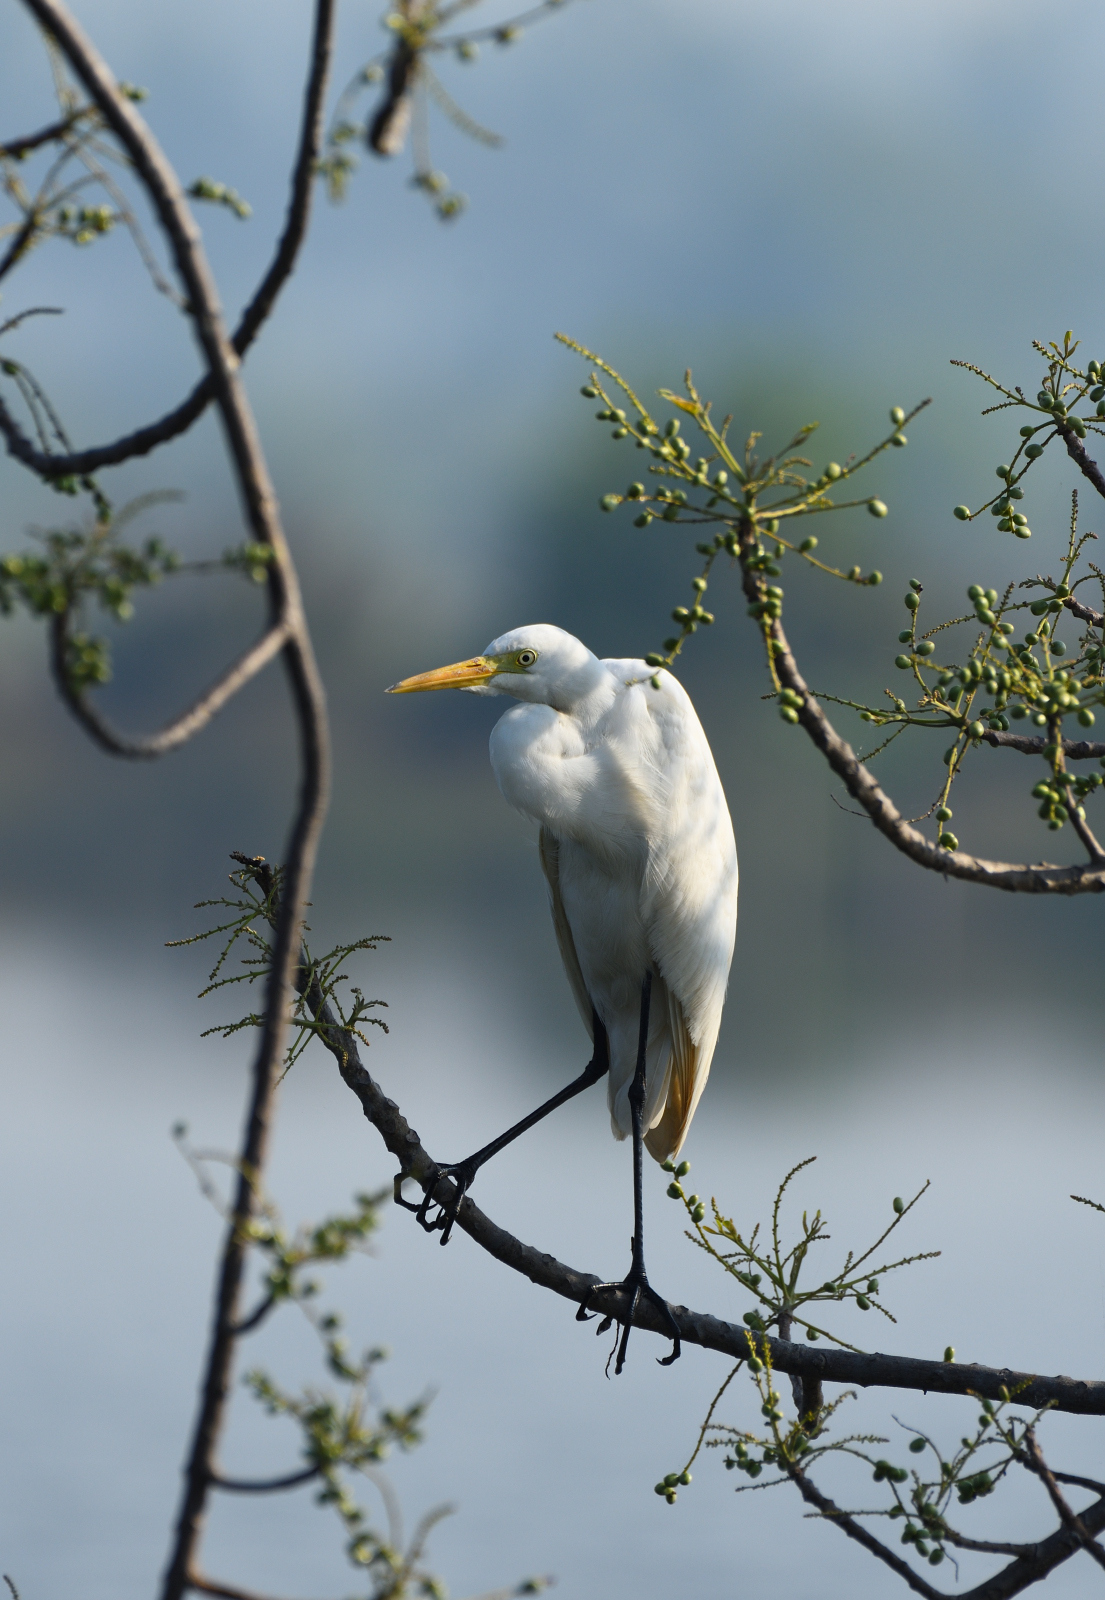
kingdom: Animalia
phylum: Chordata
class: Aves
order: Pelecaniformes
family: Ardeidae
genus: Egretta
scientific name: Egretta intermedia
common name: Intermediate egret
